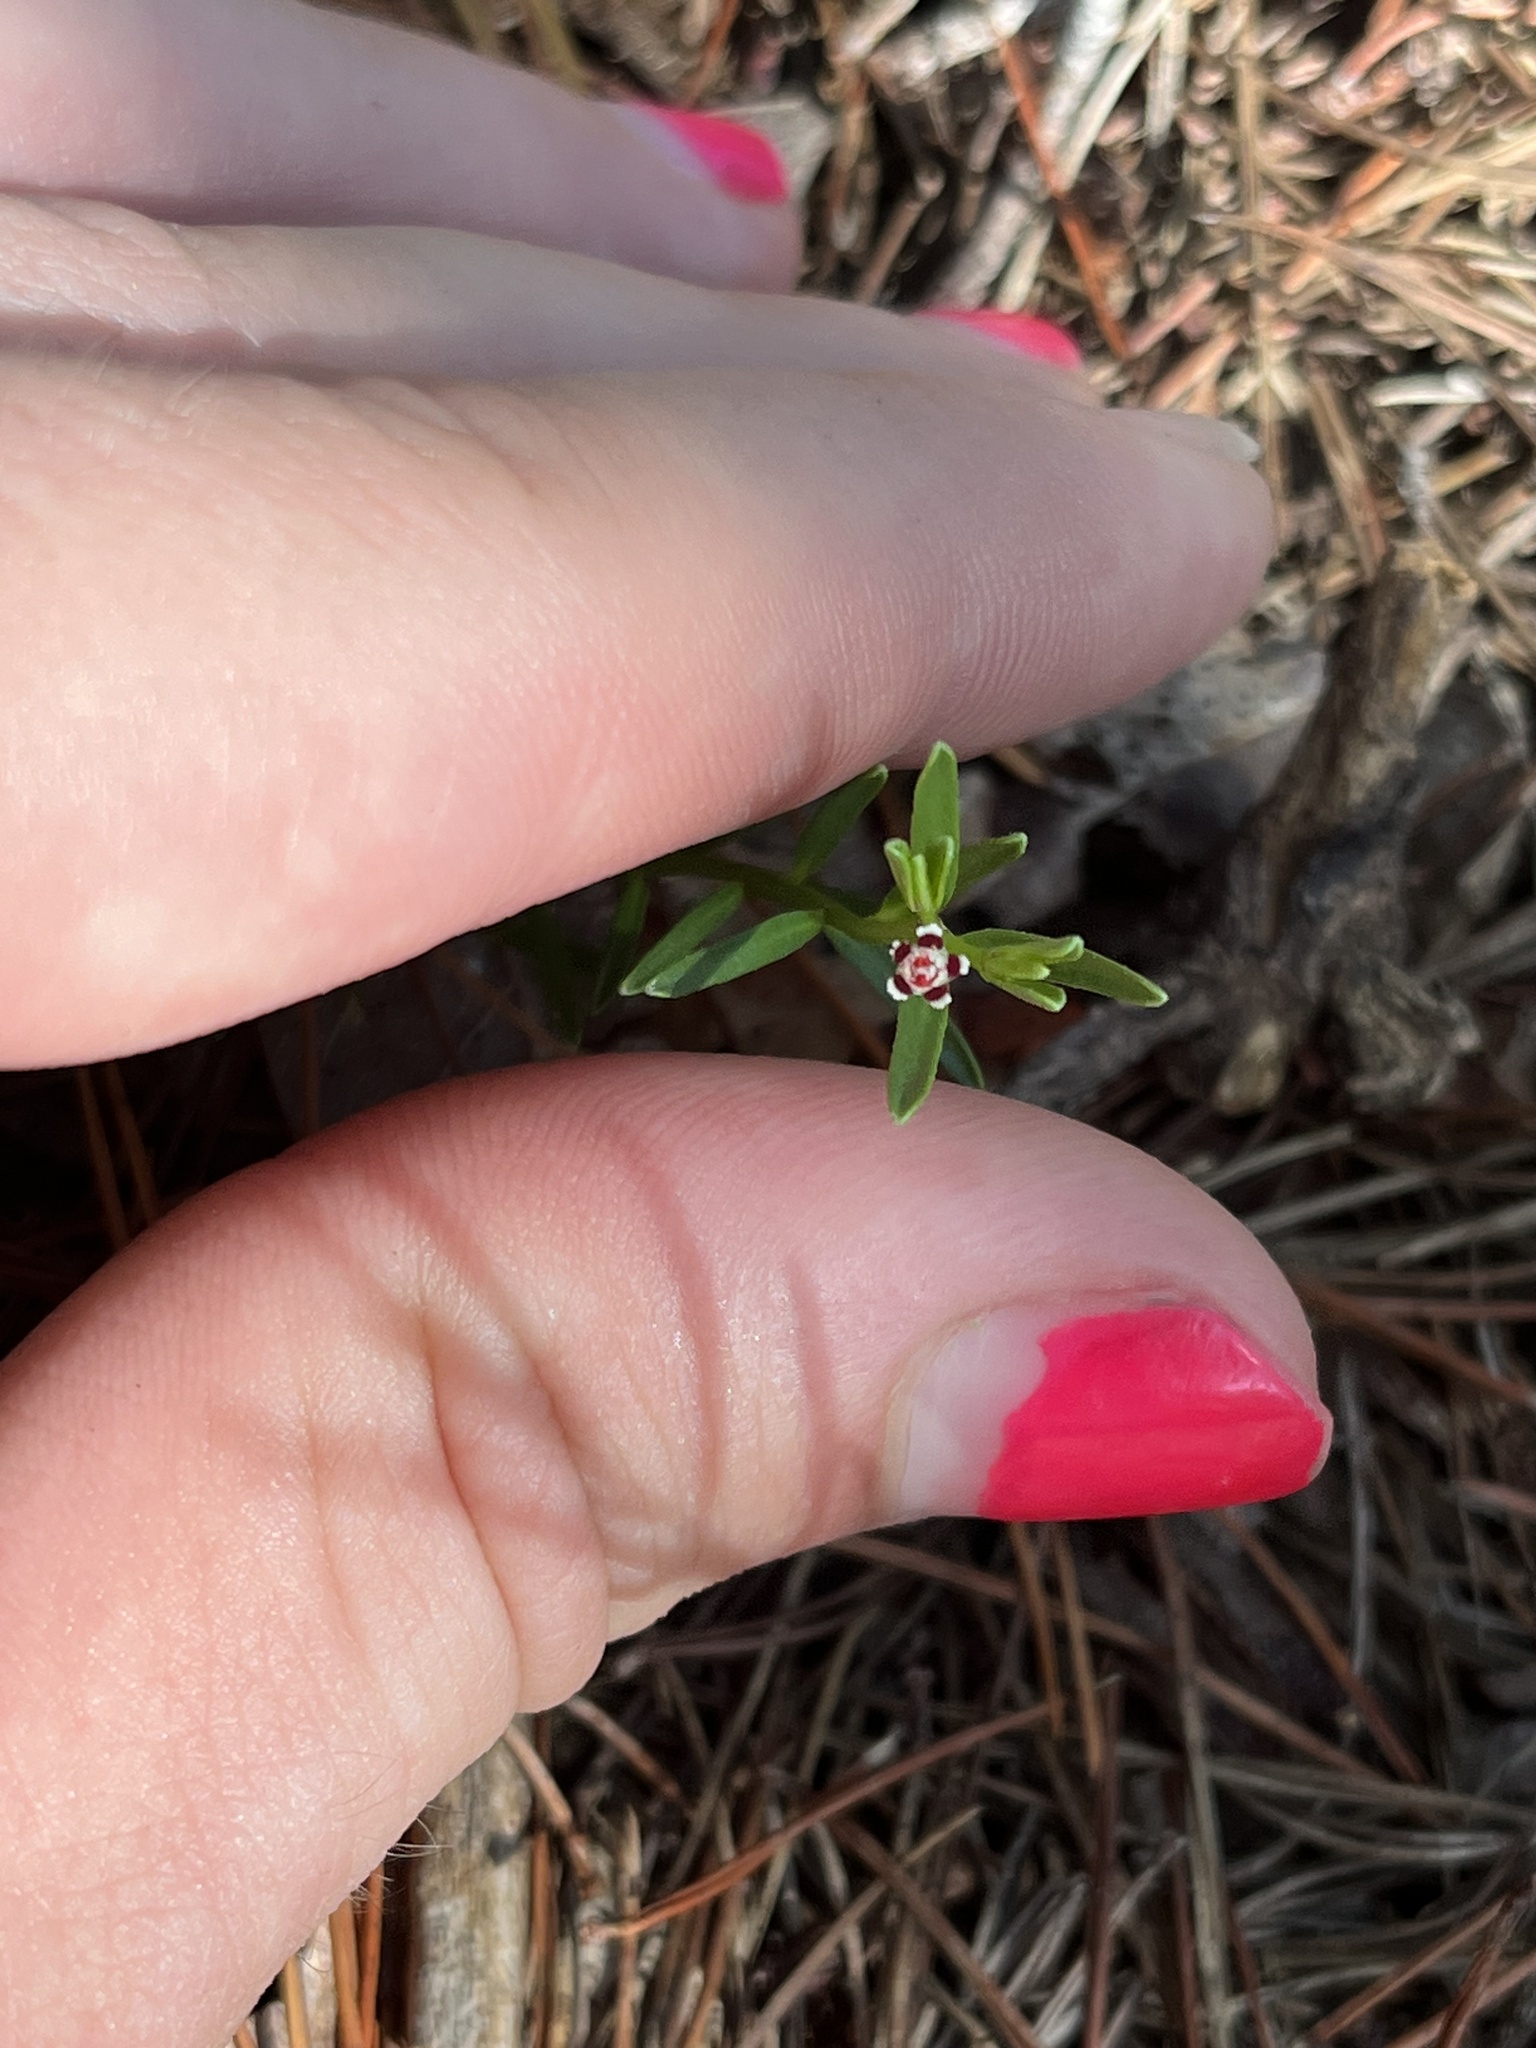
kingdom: Plantae
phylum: Tracheophyta
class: Magnoliopsida
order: Malpighiales
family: Euphorbiaceae
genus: Euphorbia
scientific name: Euphorbia polyphylla
